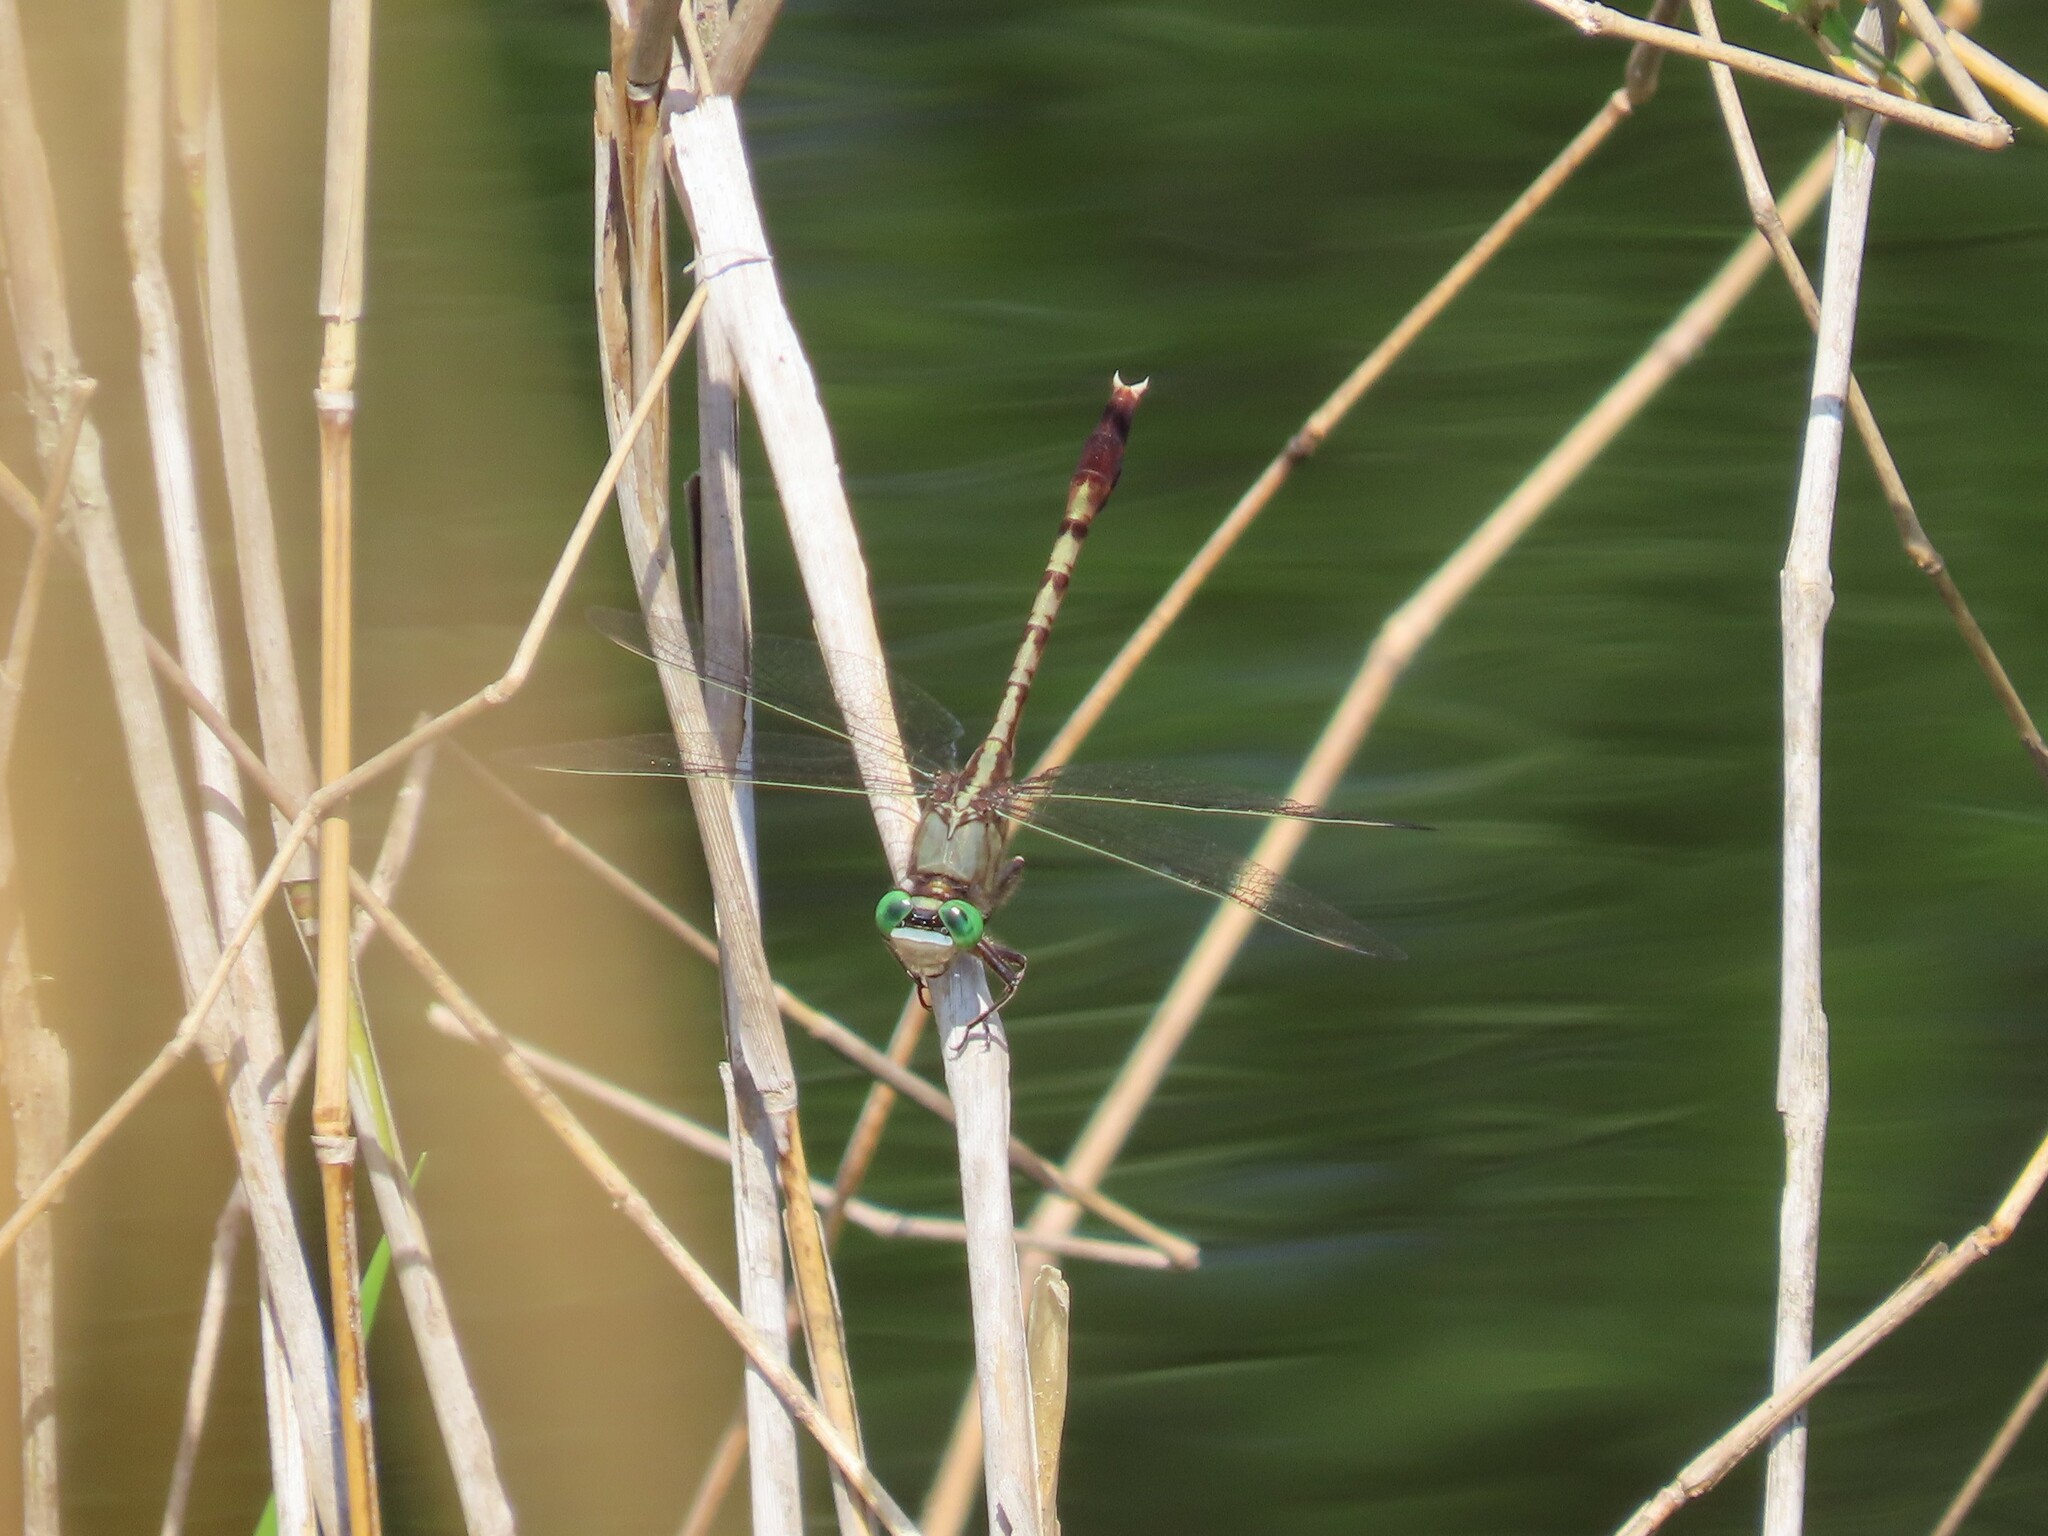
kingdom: Animalia
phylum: Arthropoda
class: Insecta
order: Odonata
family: Gomphidae
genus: Arigomphus
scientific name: Arigomphus pallidus
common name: Gray-green clubtail
